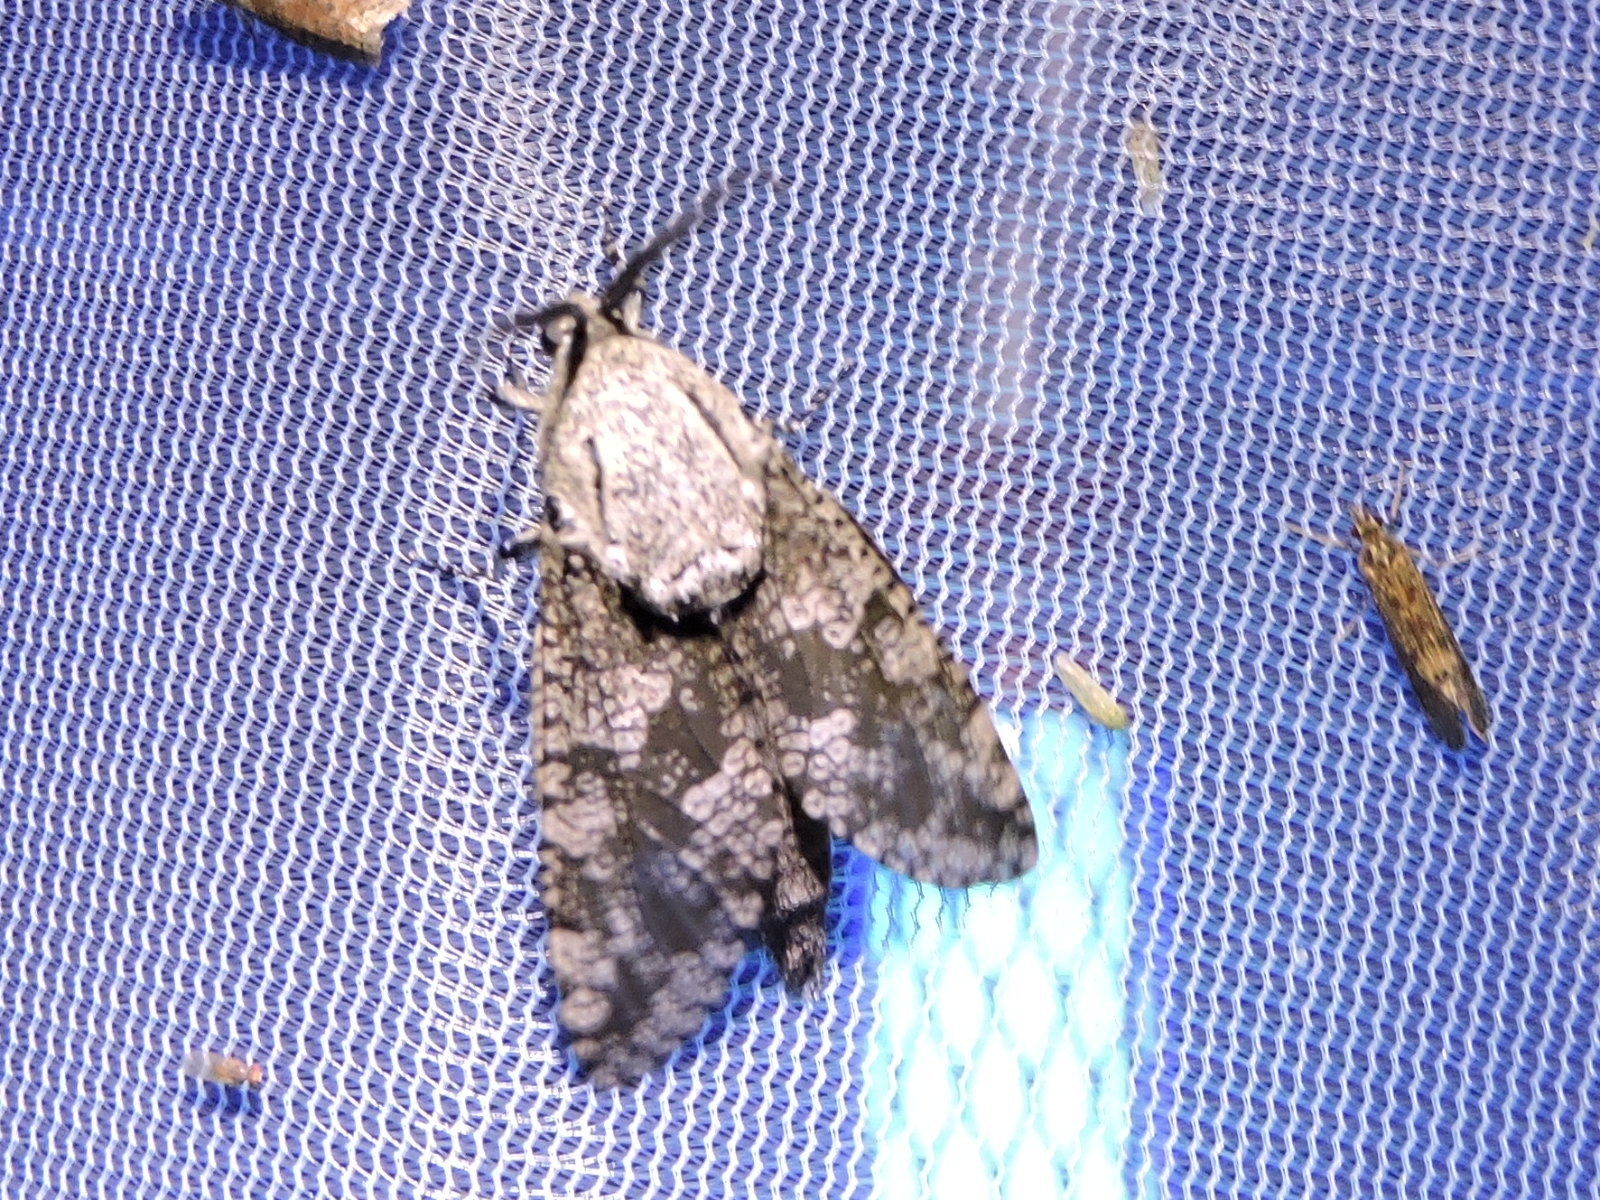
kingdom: Animalia
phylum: Arthropoda
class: Insecta
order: Lepidoptera
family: Cossidae
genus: Prionoxystus
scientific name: Prionoxystus robiniae
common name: Carpenterworm
